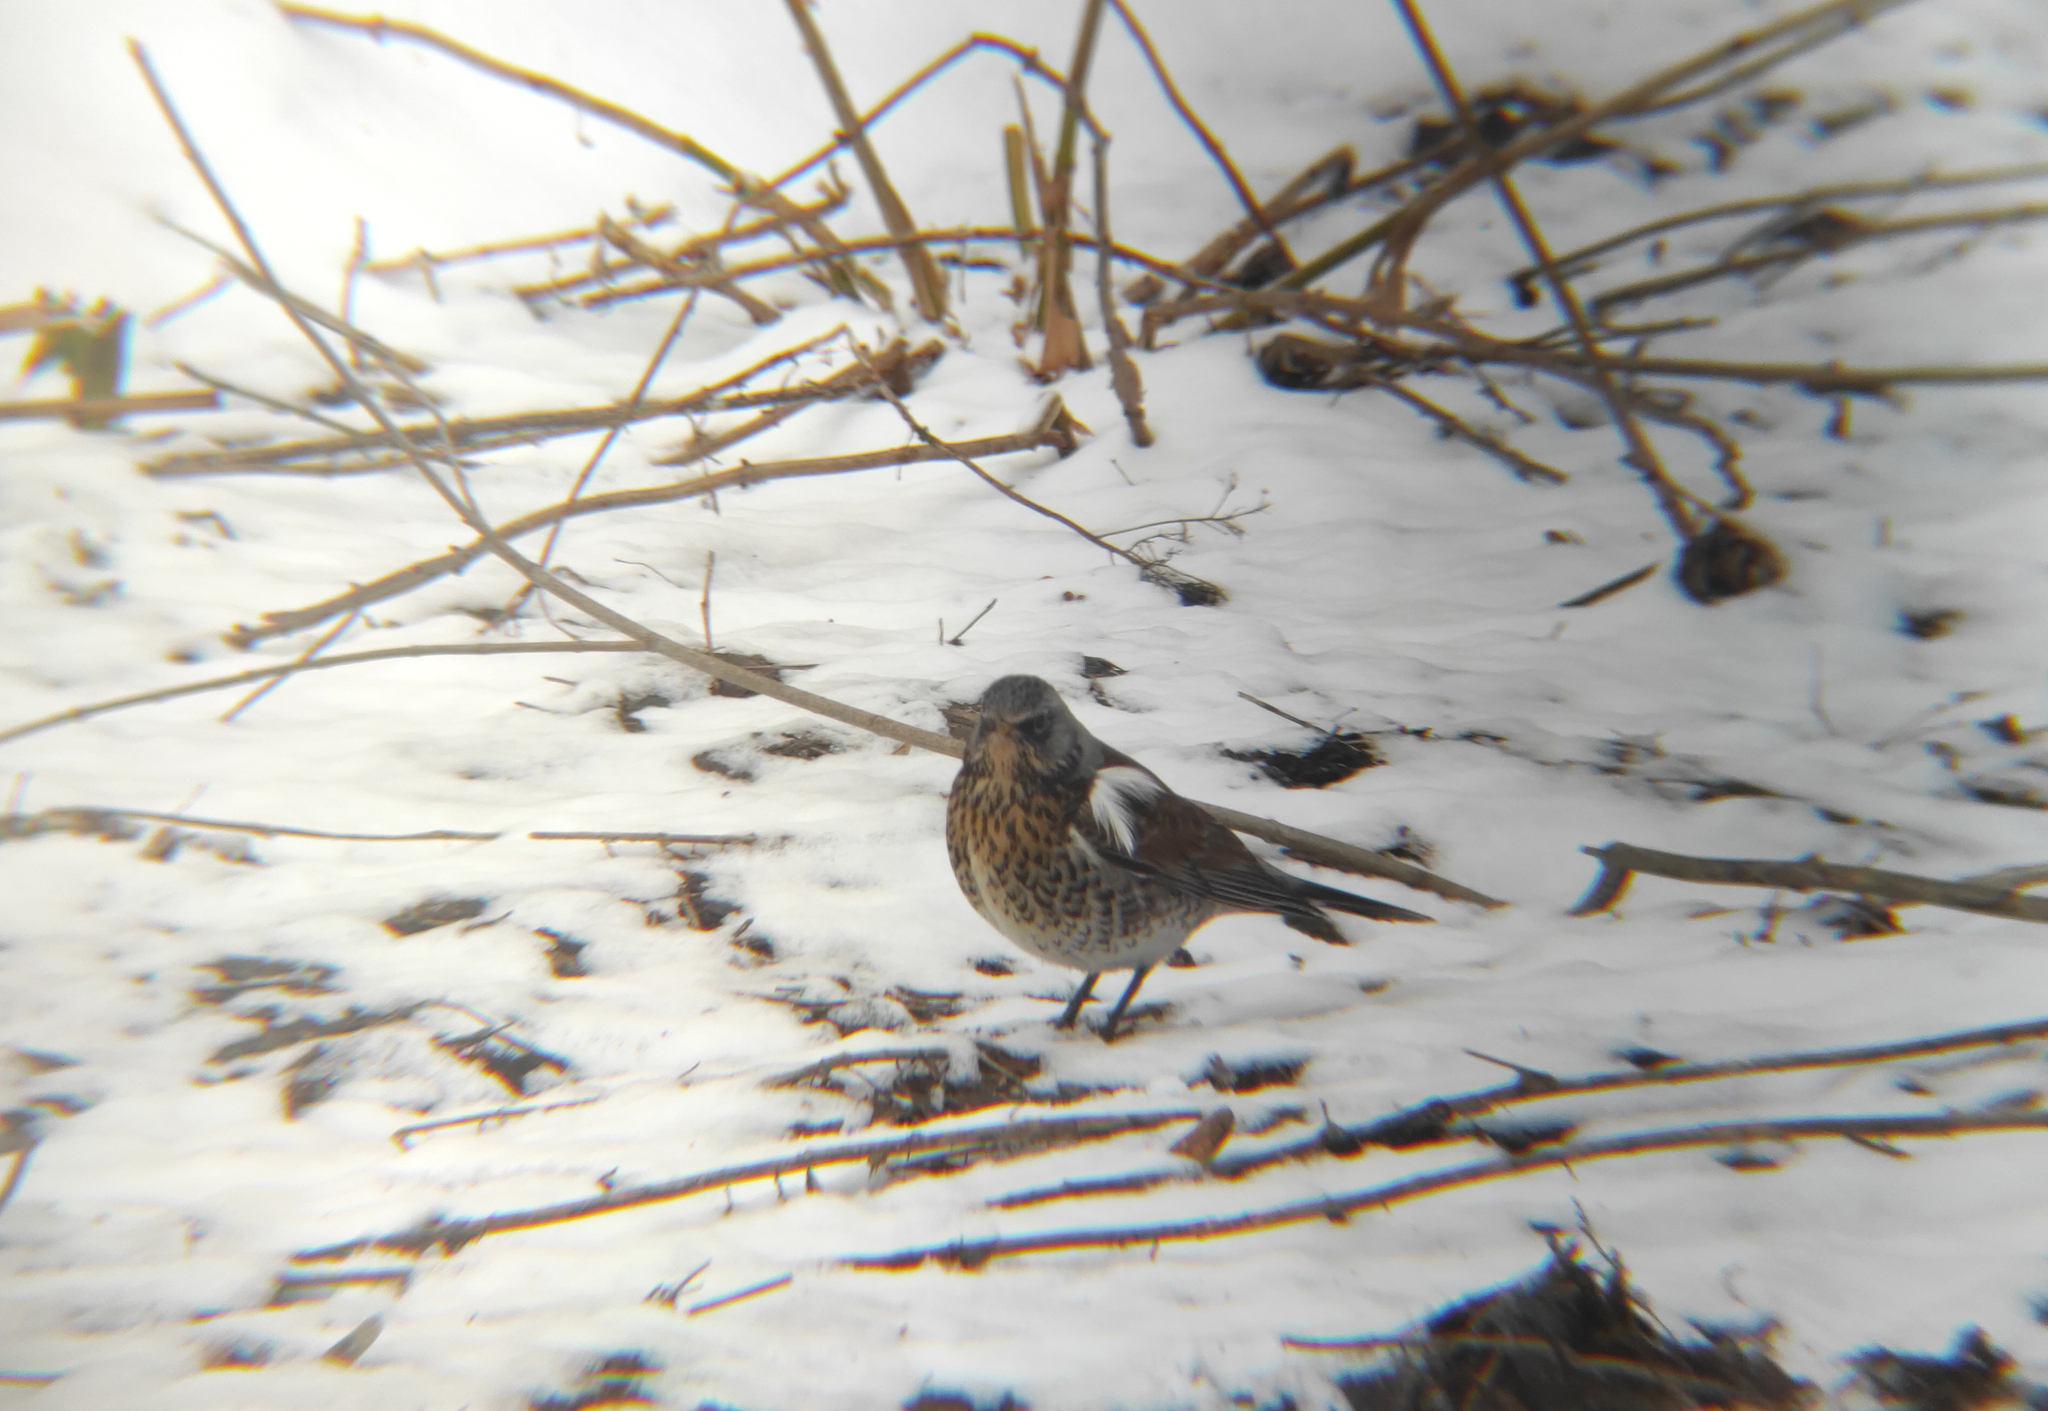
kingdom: Animalia
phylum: Chordata
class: Aves
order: Passeriformes
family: Turdidae
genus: Turdus
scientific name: Turdus pilaris
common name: Fieldfare
